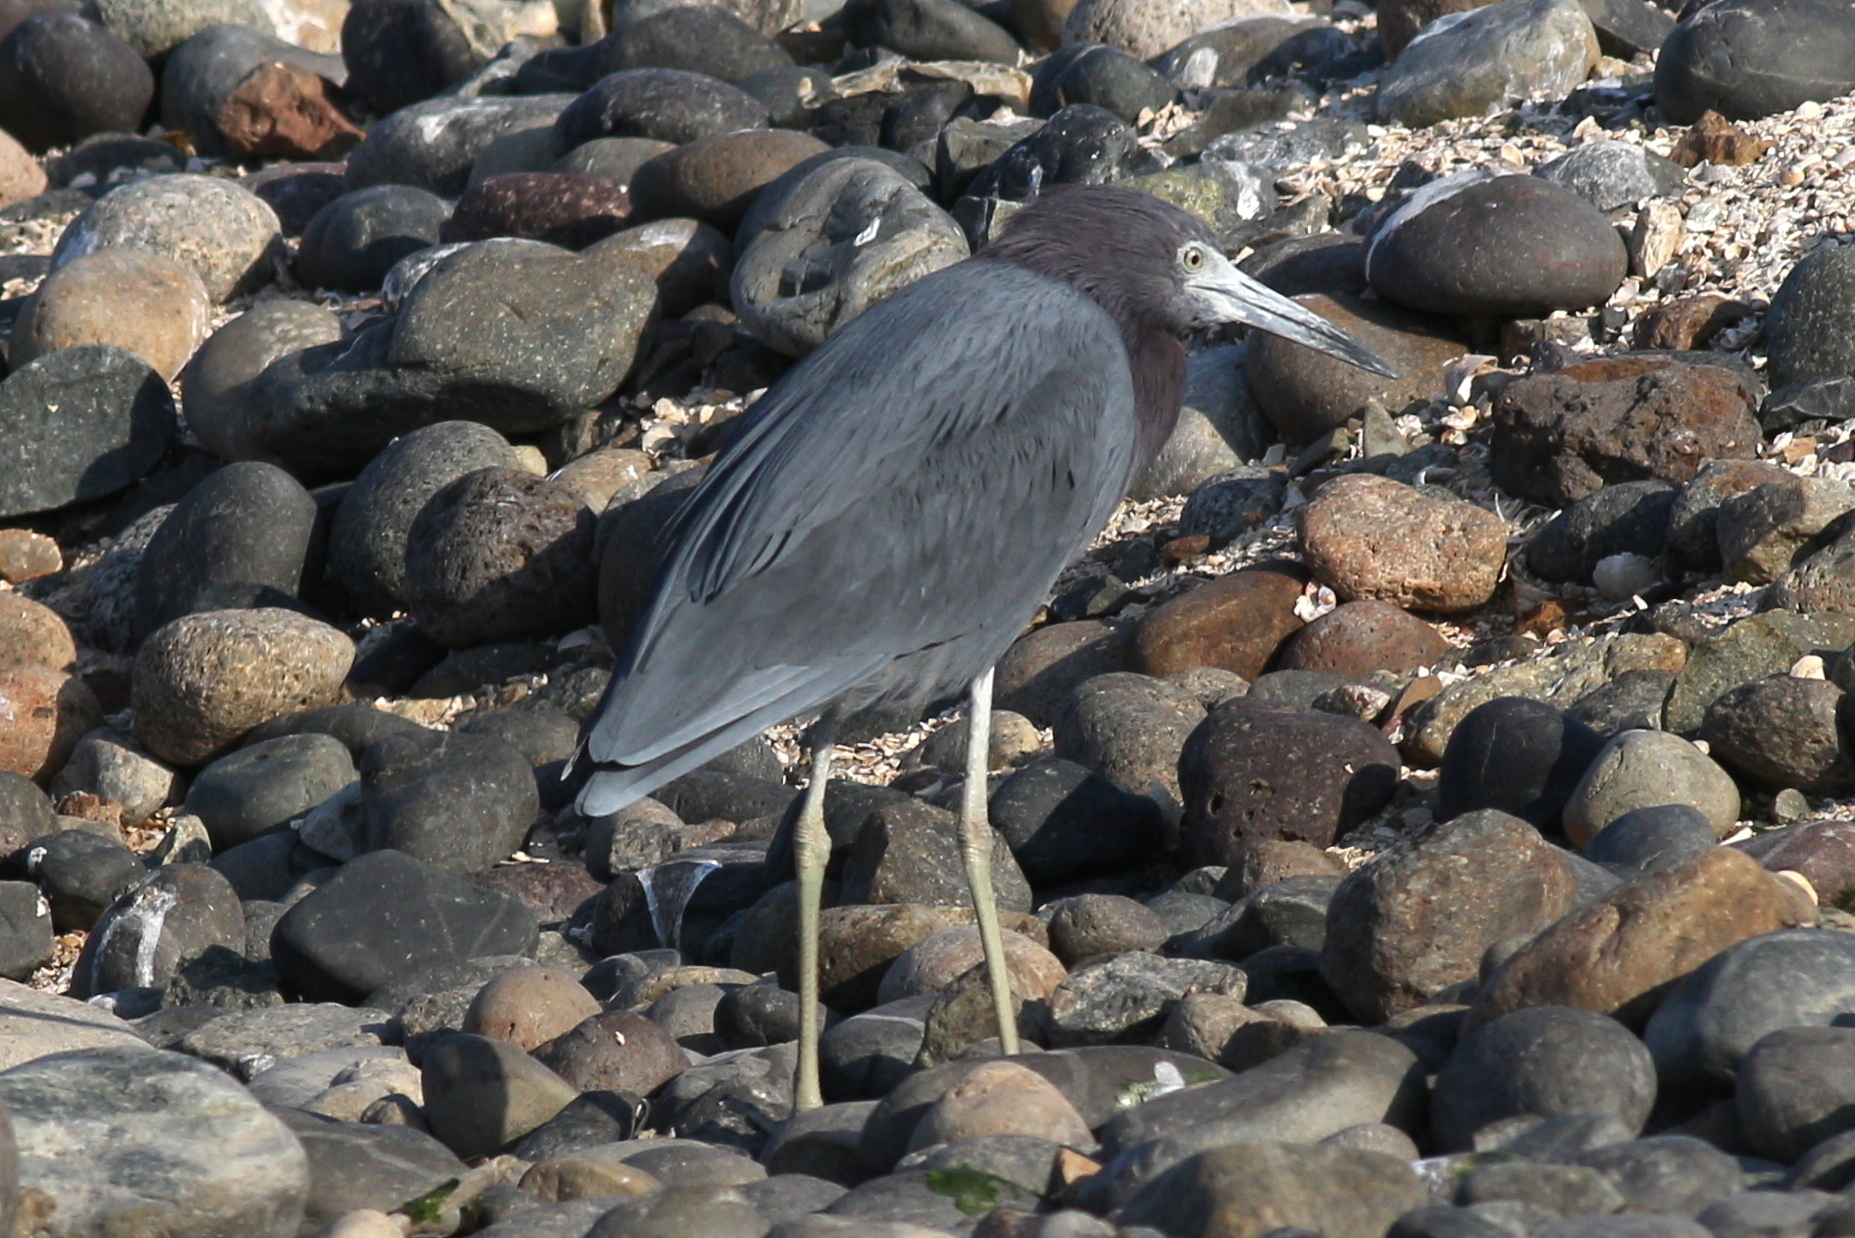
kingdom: Animalia
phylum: Chordata
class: Aves
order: Pelecaniformes
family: Ardeidae
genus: Egretta
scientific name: Egretta caerulea
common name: Little blue heron
